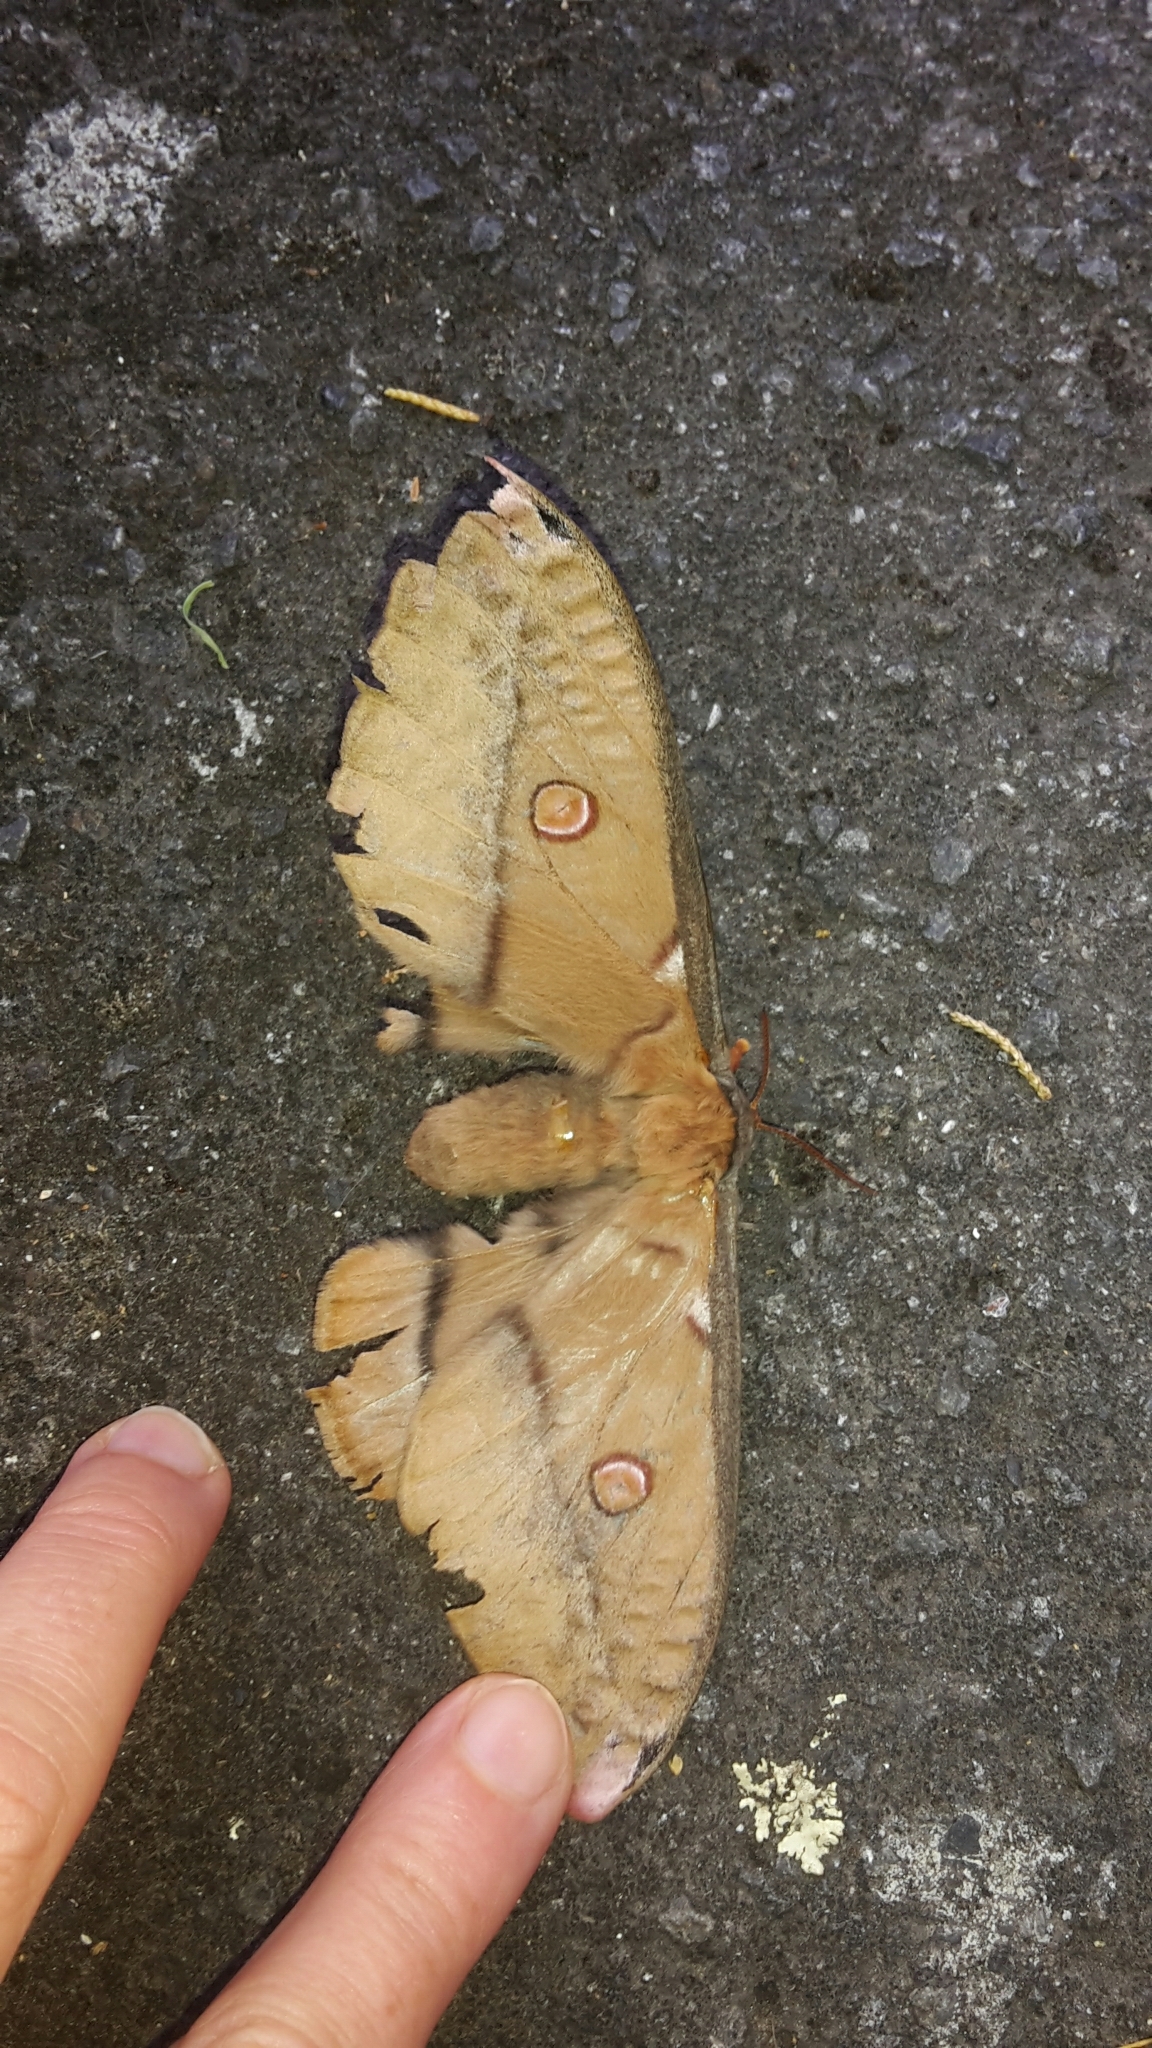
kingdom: Animalia
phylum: Arthropoda
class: Insecta
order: Lepidoptera
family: Saturniidae
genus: Opodiphthera
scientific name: Opodiphthera
